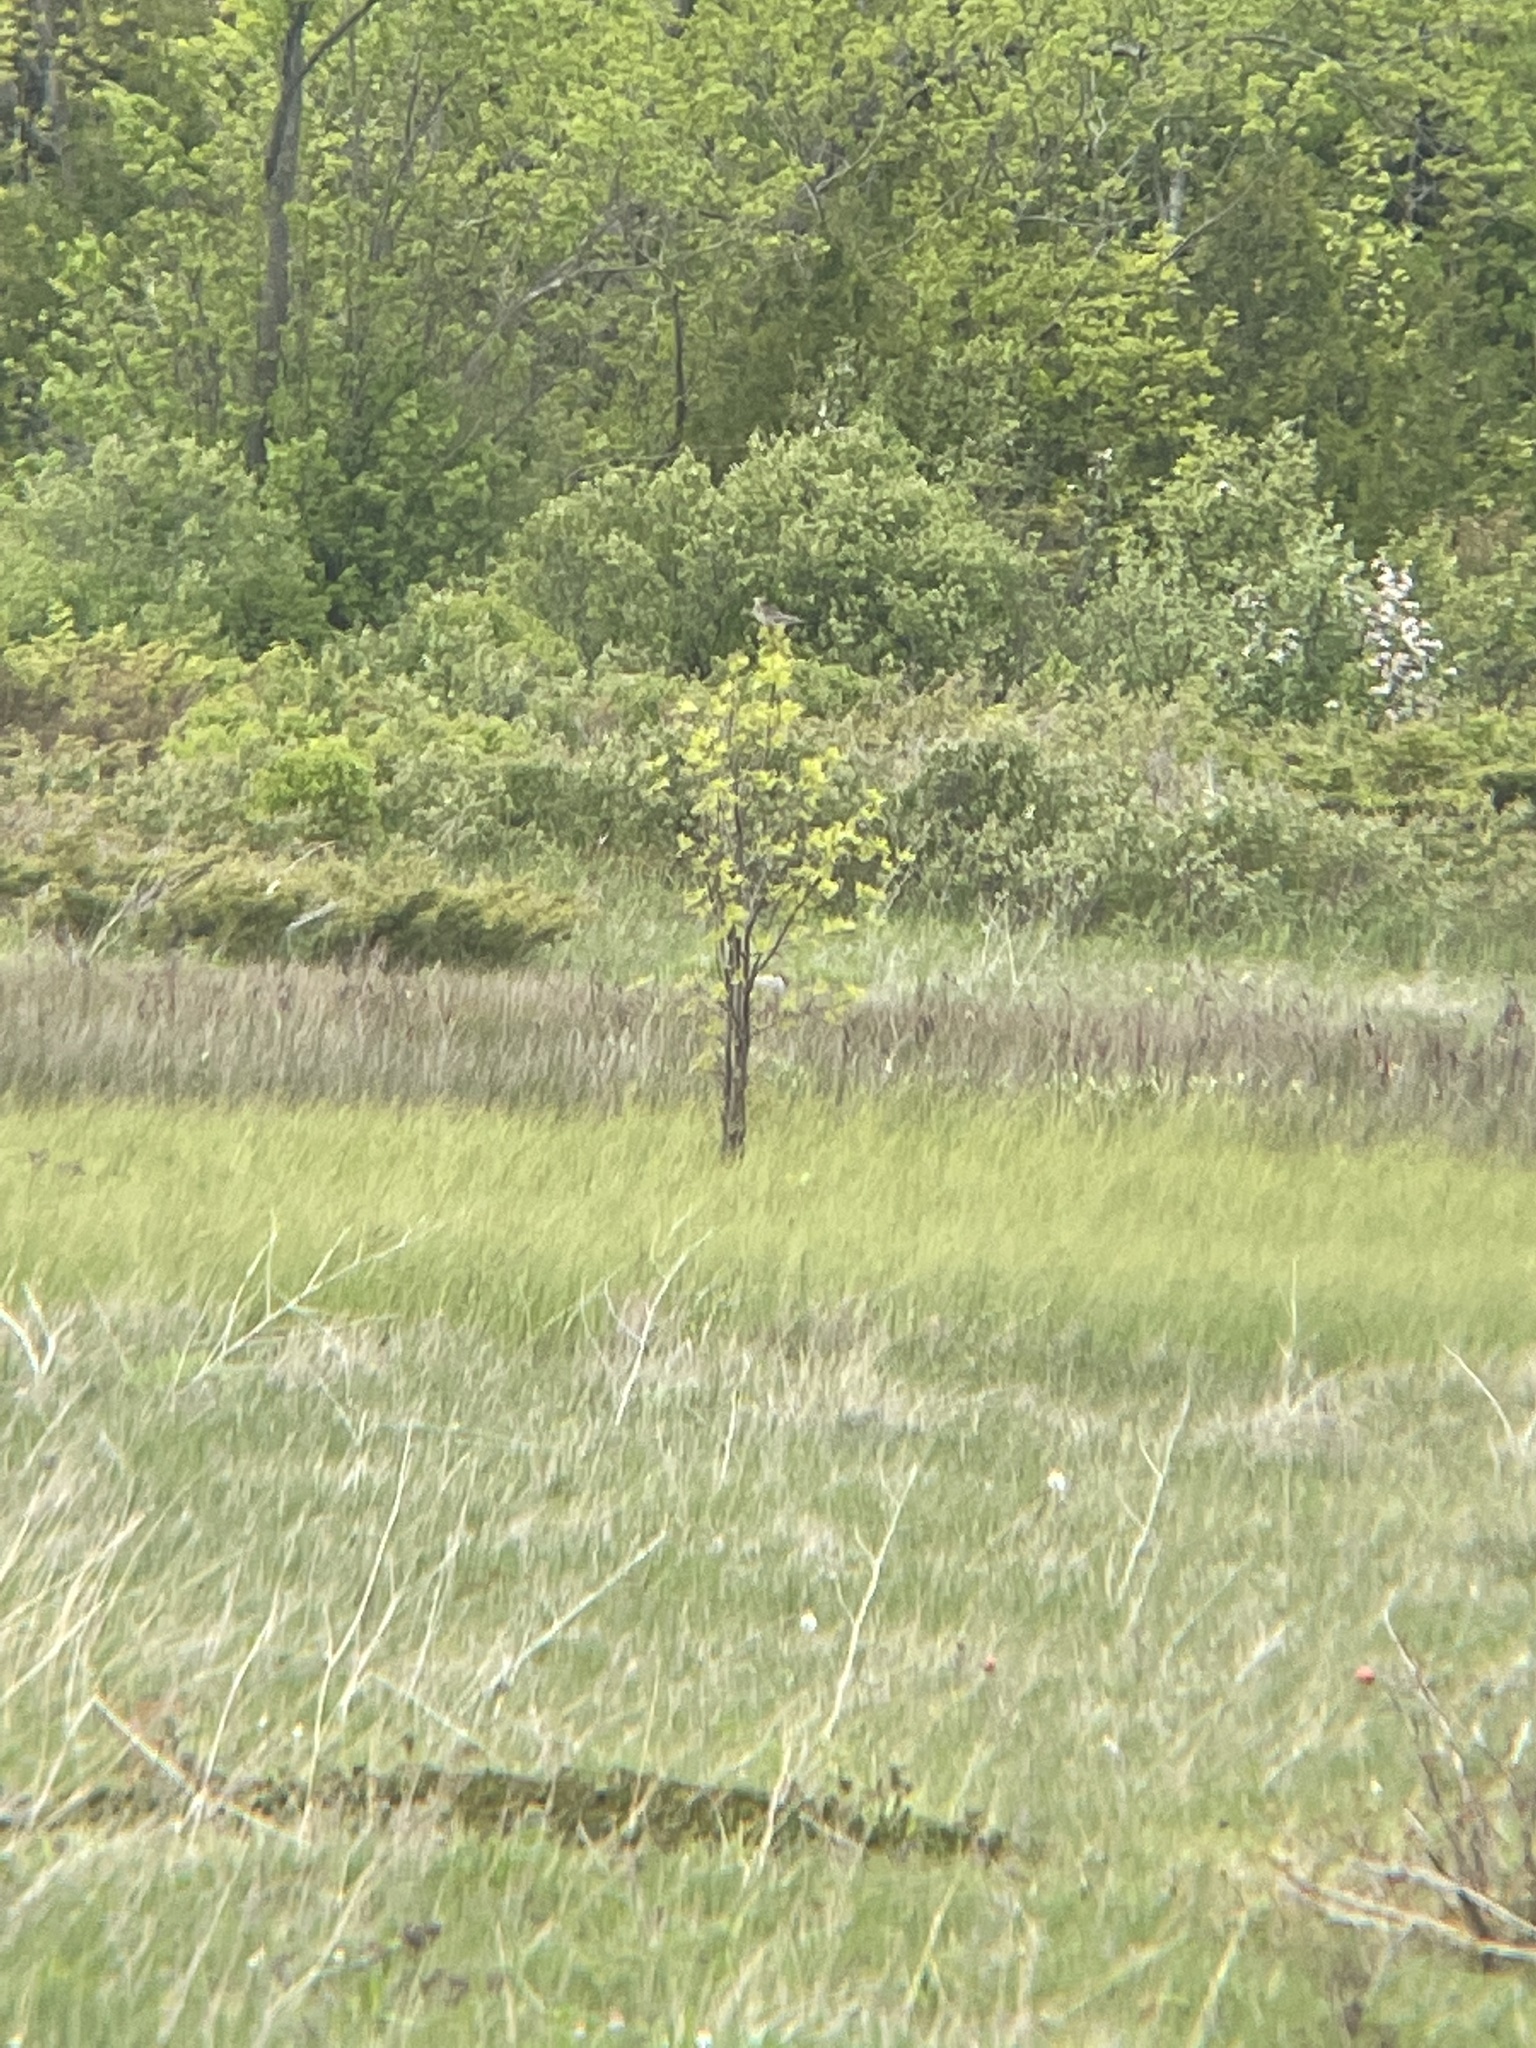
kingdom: Animalia
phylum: Chordata
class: Aves
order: Charadriiformes
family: Scolopacidae
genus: Bartramia
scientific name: Bartramia longicauda
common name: Upland sandpiper
